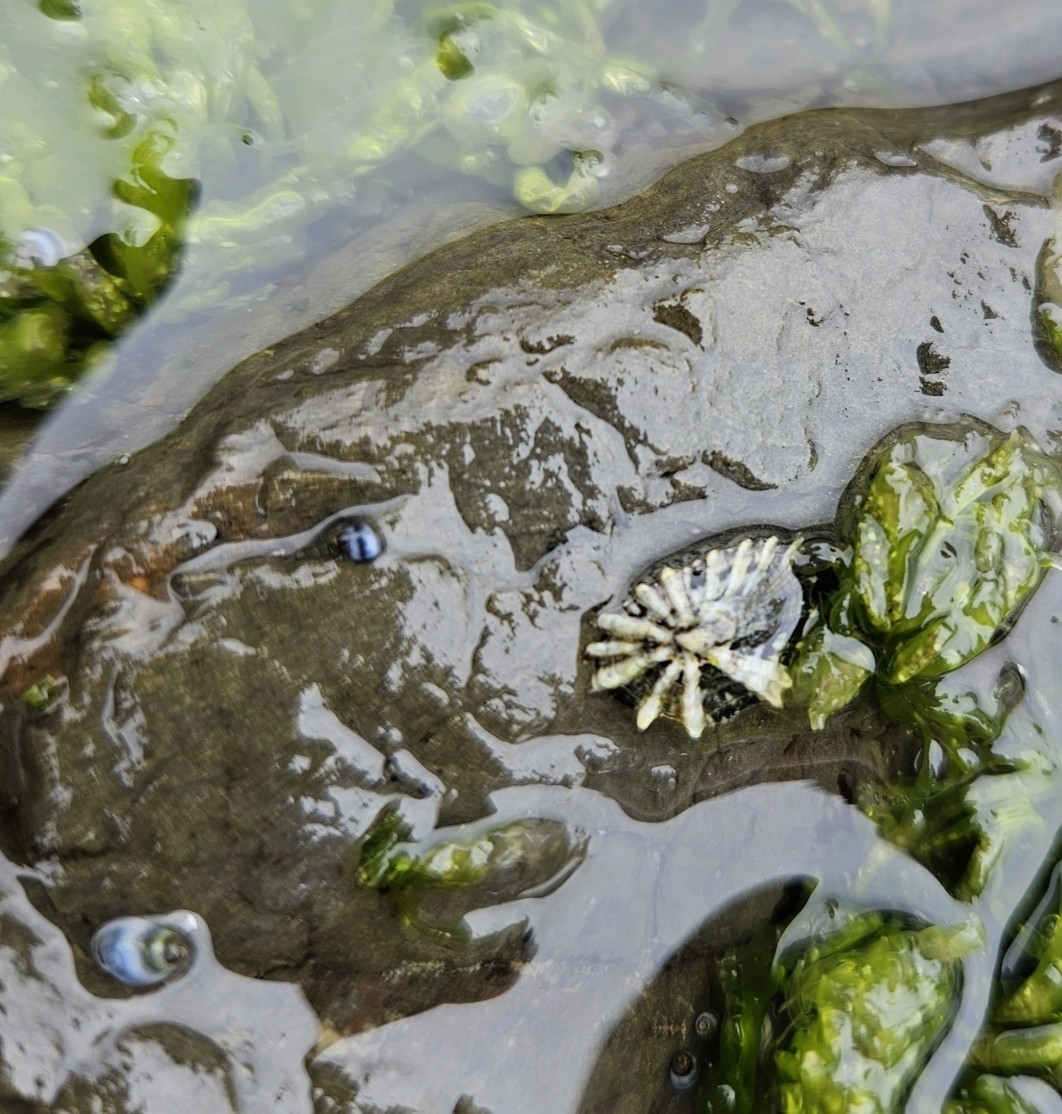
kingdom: Animalia
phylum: Mollusca
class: Gastropoda
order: Siphonariida
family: Siphonariidae
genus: Siphonaria
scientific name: Siphonaria australis
